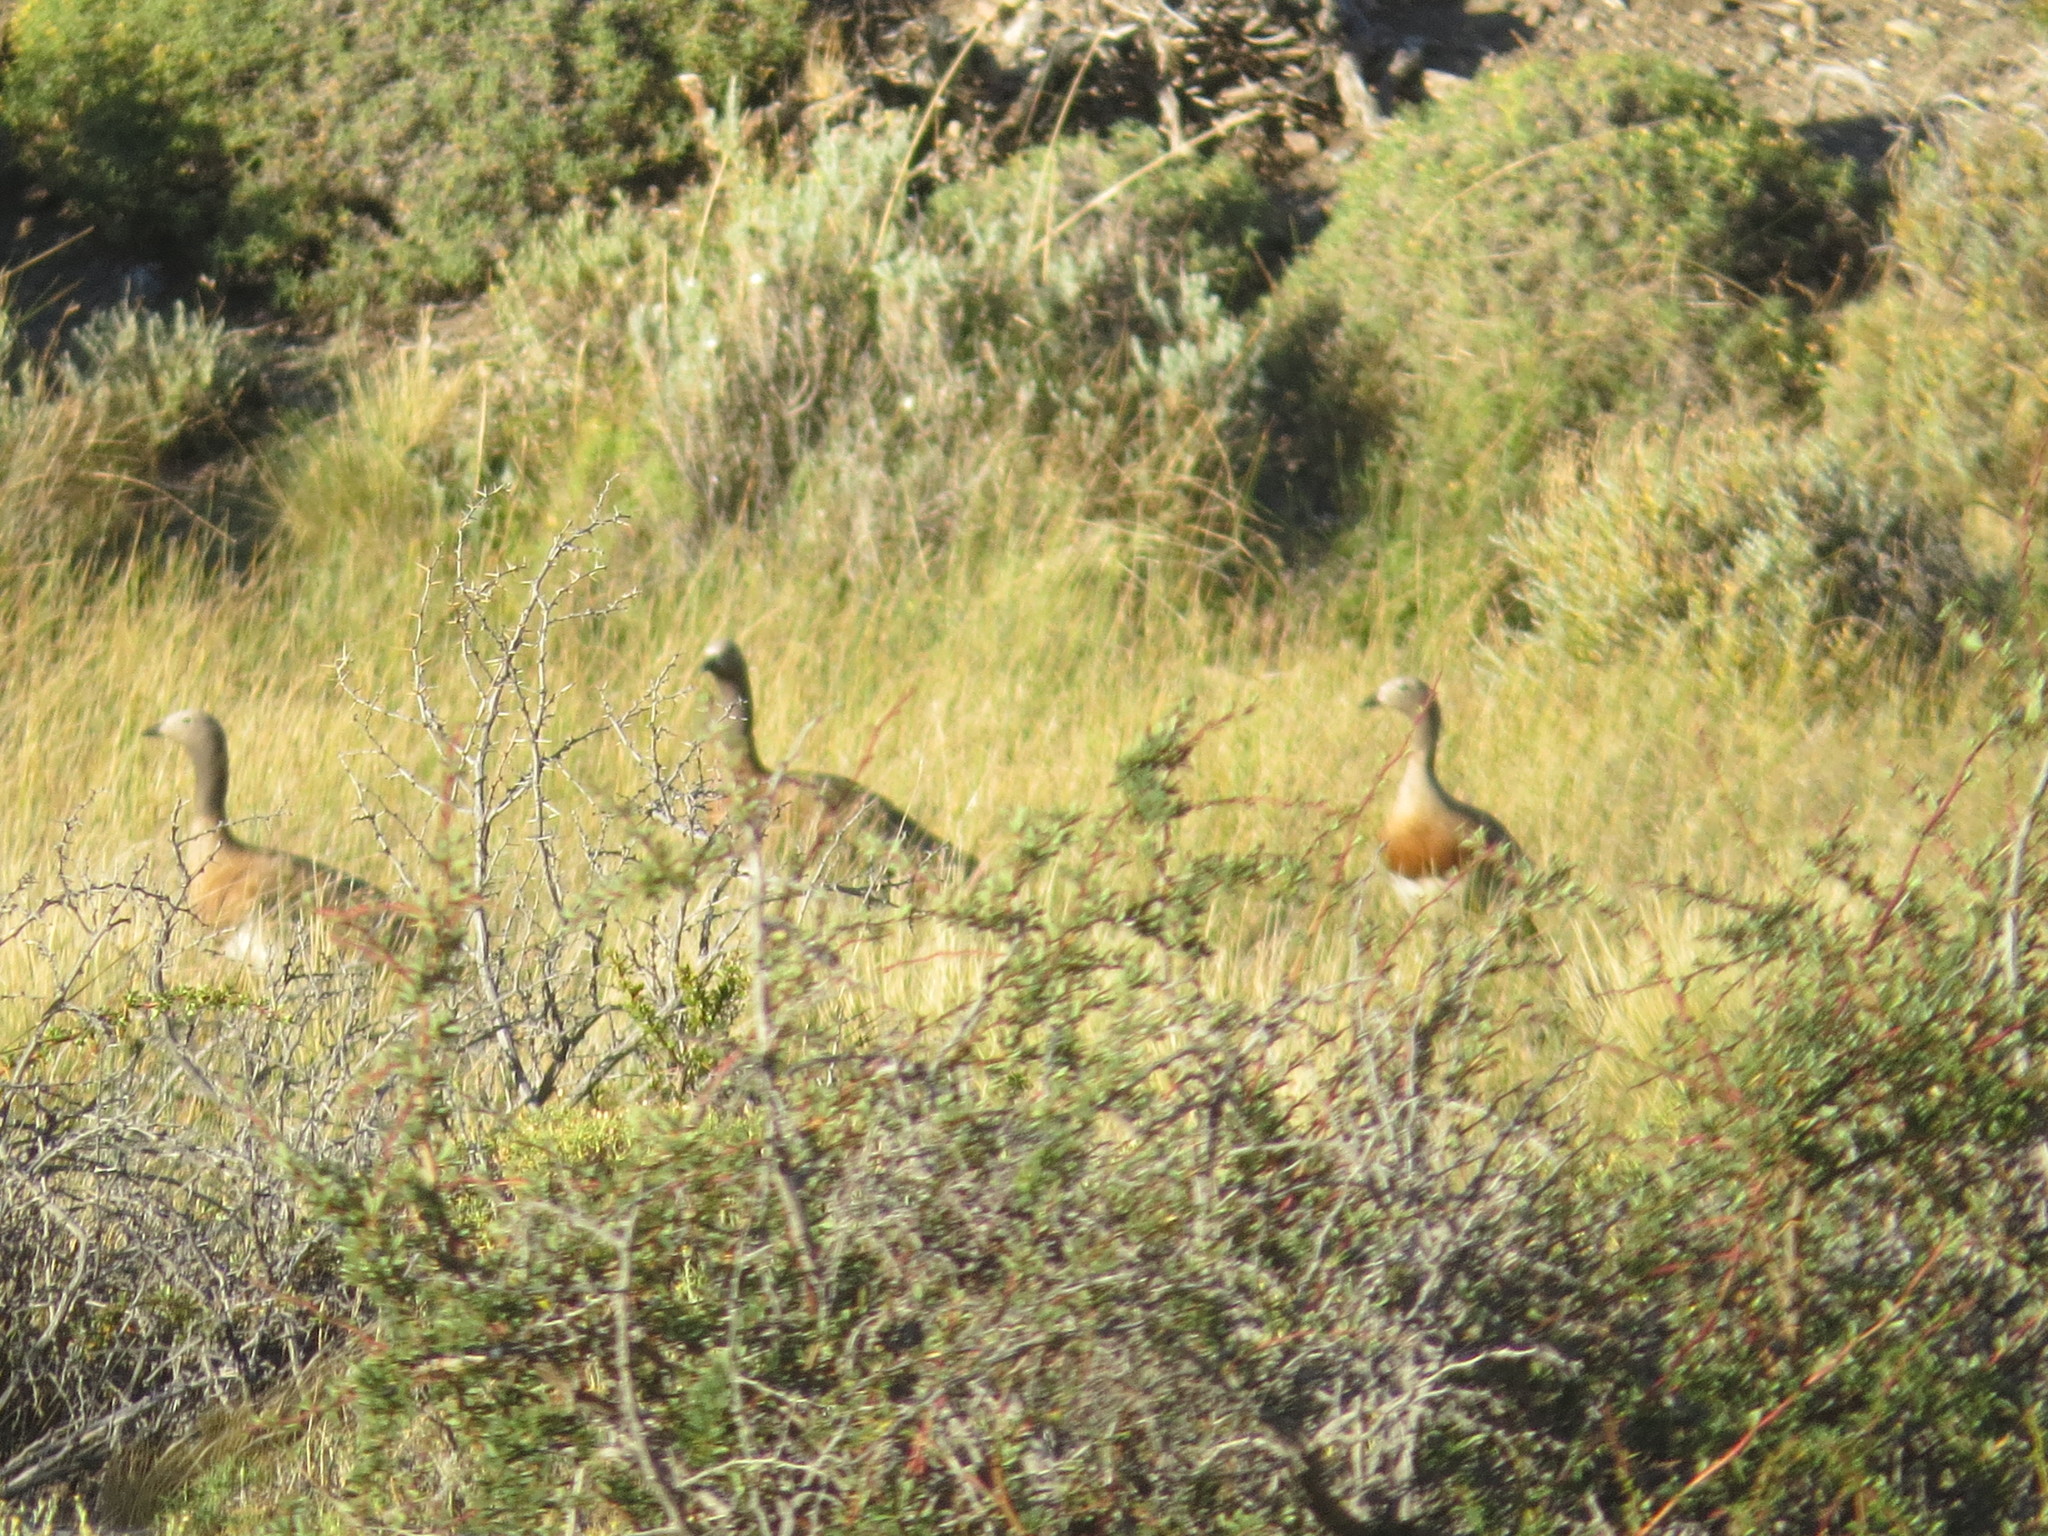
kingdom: Animalia
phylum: Chordata
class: Aves
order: Anseriformes
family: Anatidae
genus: Chloephaga
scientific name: Chloephaga poliocephala
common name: Ashy-headed goose
